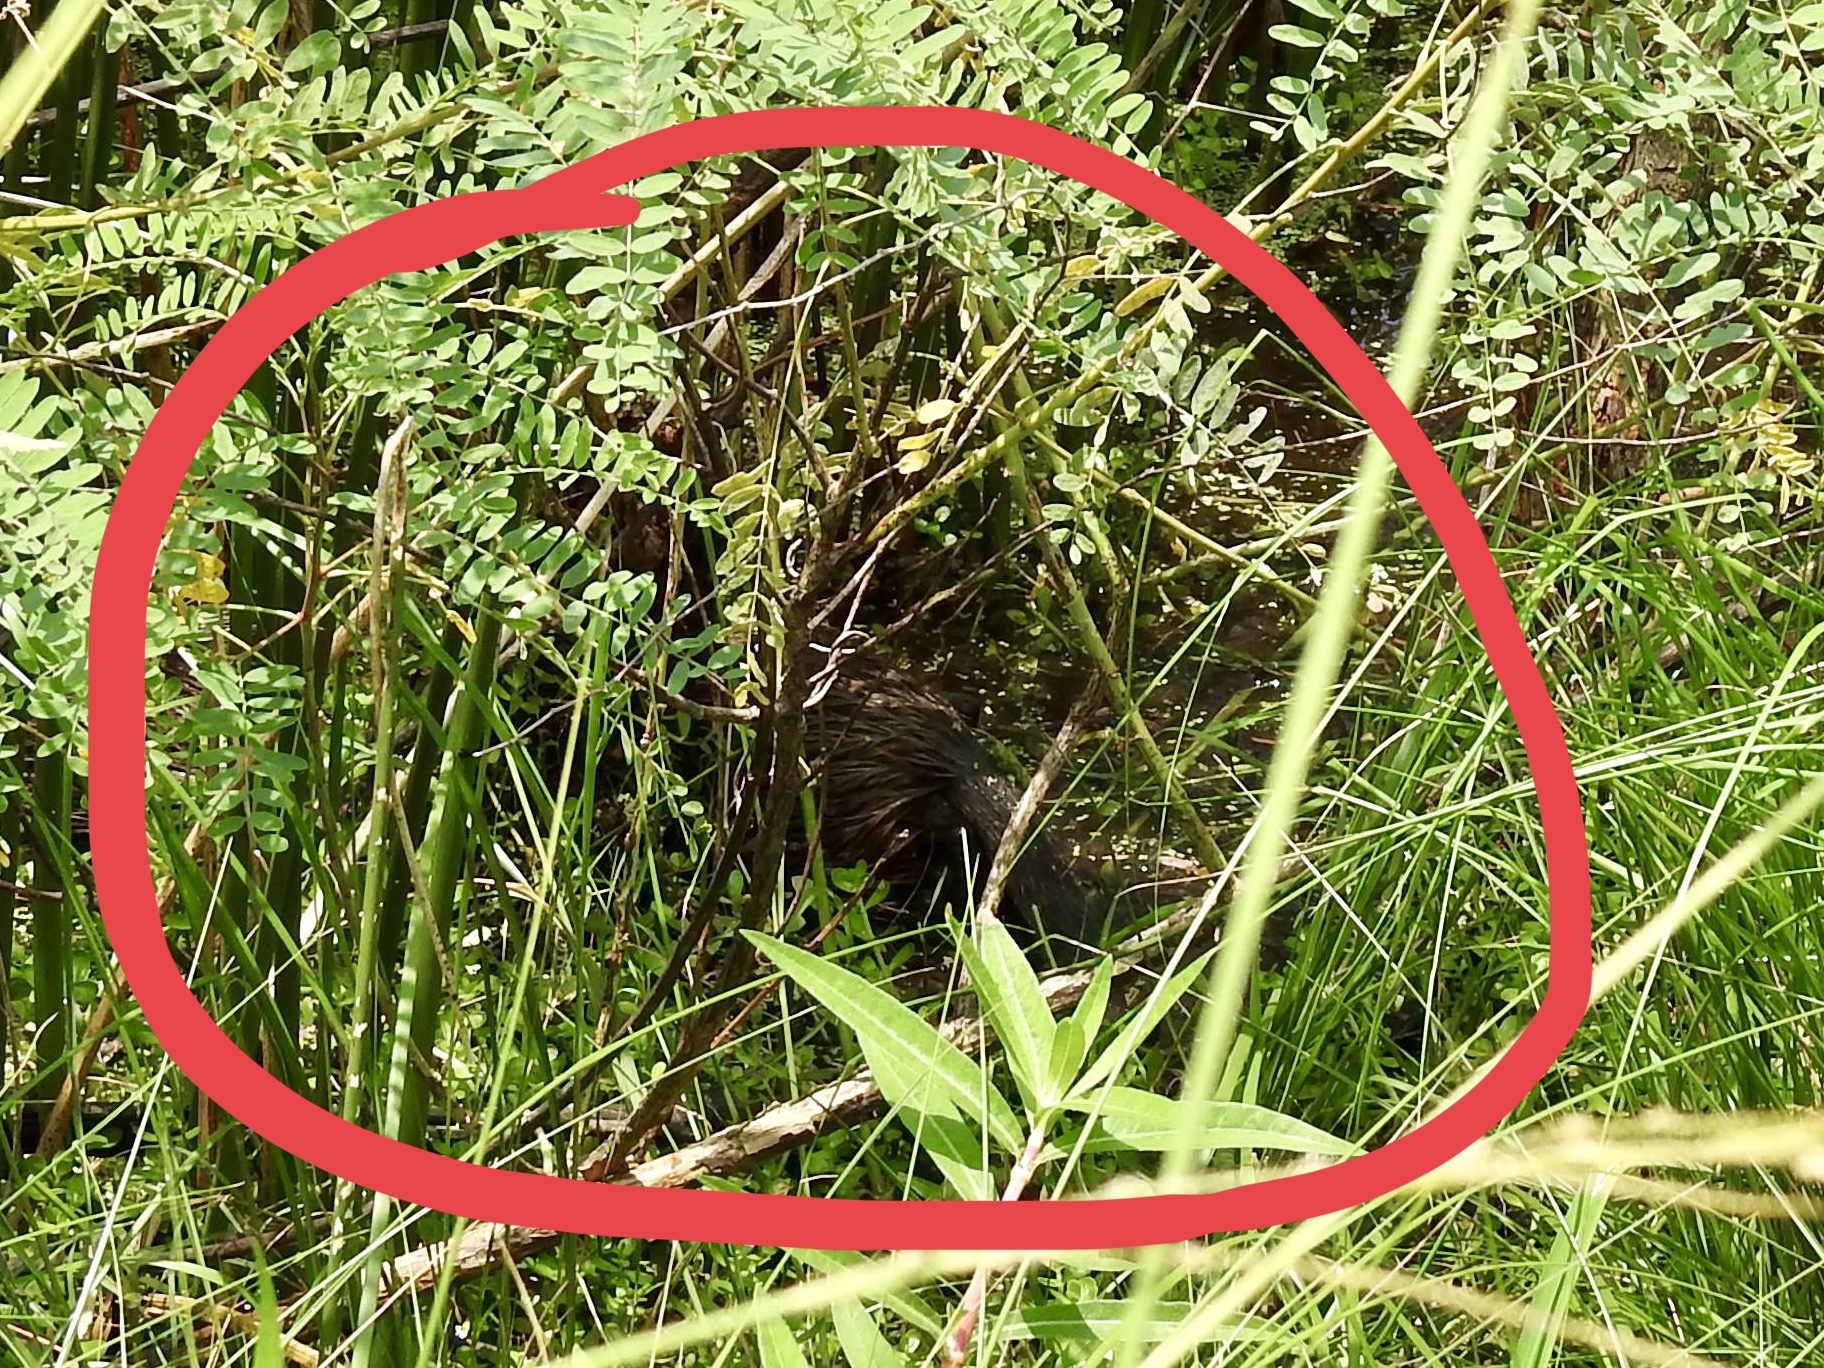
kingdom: Animalia
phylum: Chordata
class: Mammalia
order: Rodentia
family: Myocastoridae
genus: Myocastor
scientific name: Myocastor coypus
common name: Coypu
